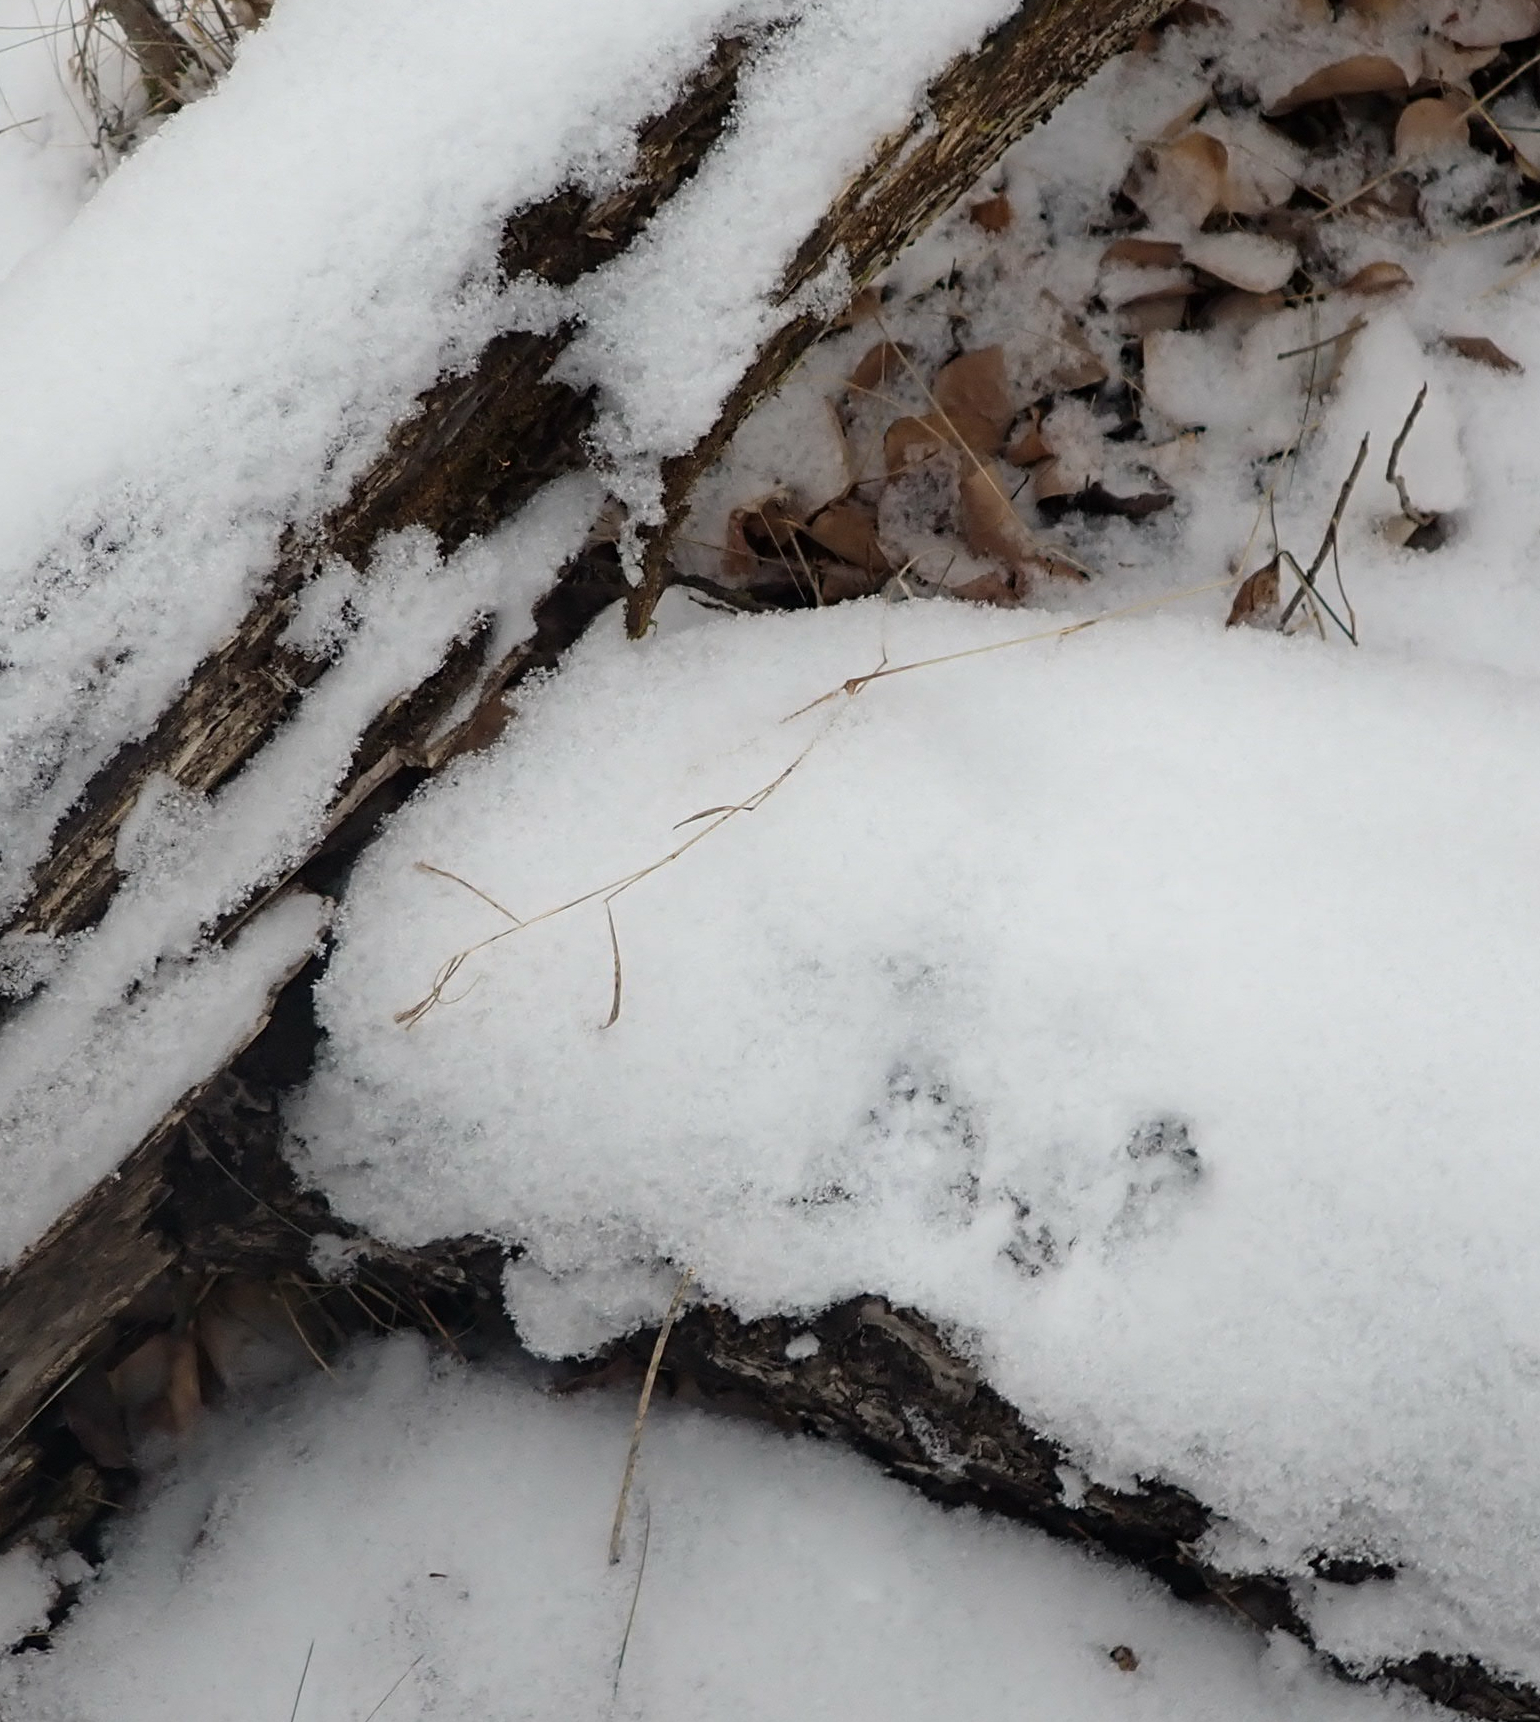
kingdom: Animalia
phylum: Chordata
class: Mammalia
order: Rodentia
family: Sciuridae
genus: Tamiasciurus
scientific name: Tamiasciurus hudsonicus
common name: Red squirrel
